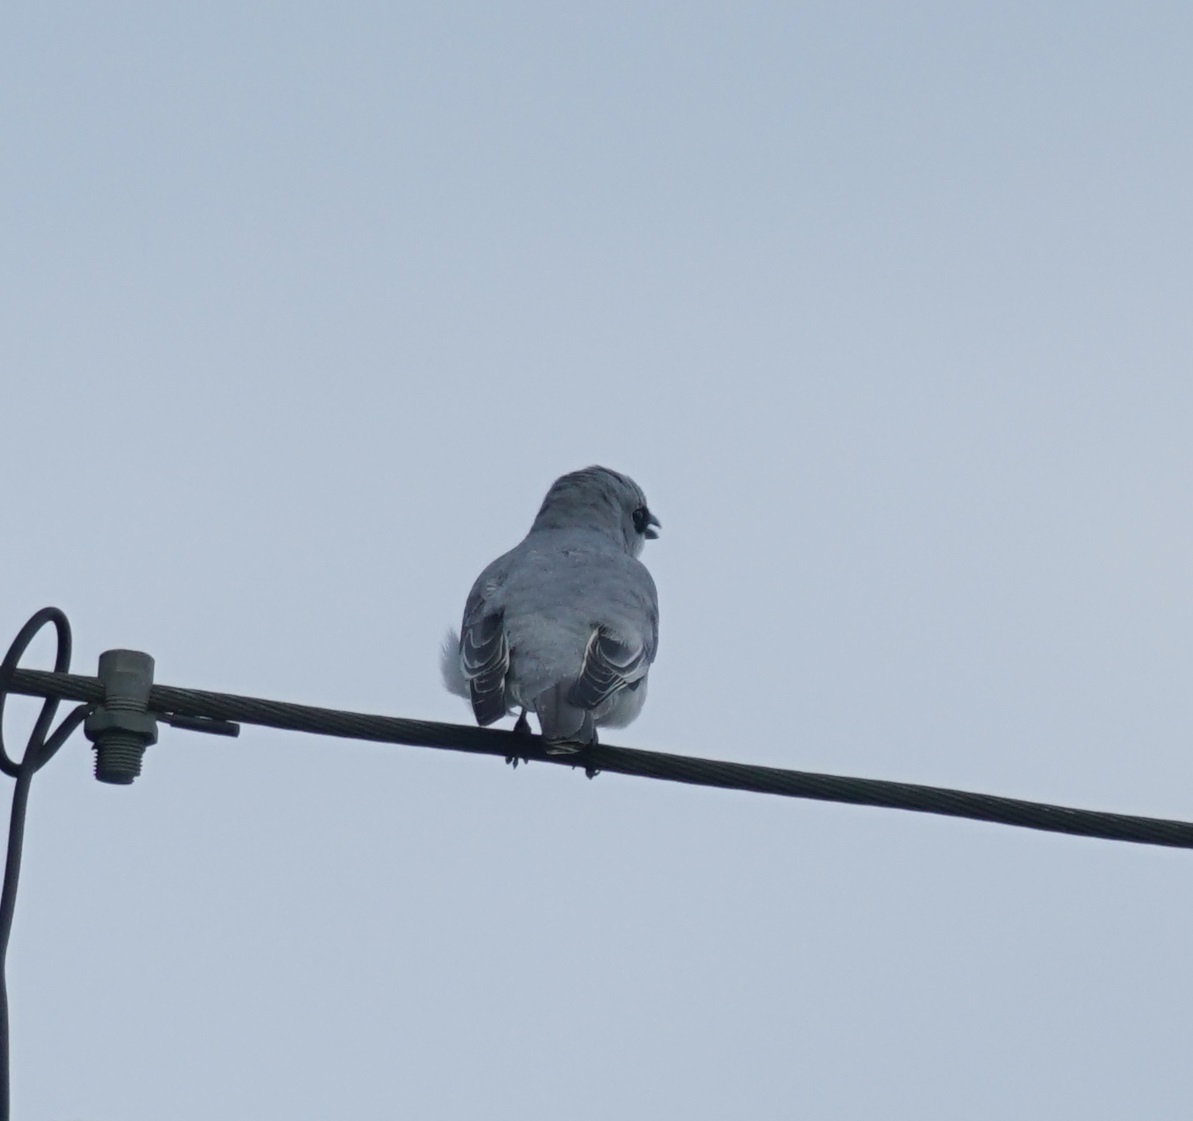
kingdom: Animalia
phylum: Chordata
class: Aves
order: Passeriformes
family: Campephagidae
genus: Coracina
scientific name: Coracina papuensis
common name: White-bellied cuckooshrike
